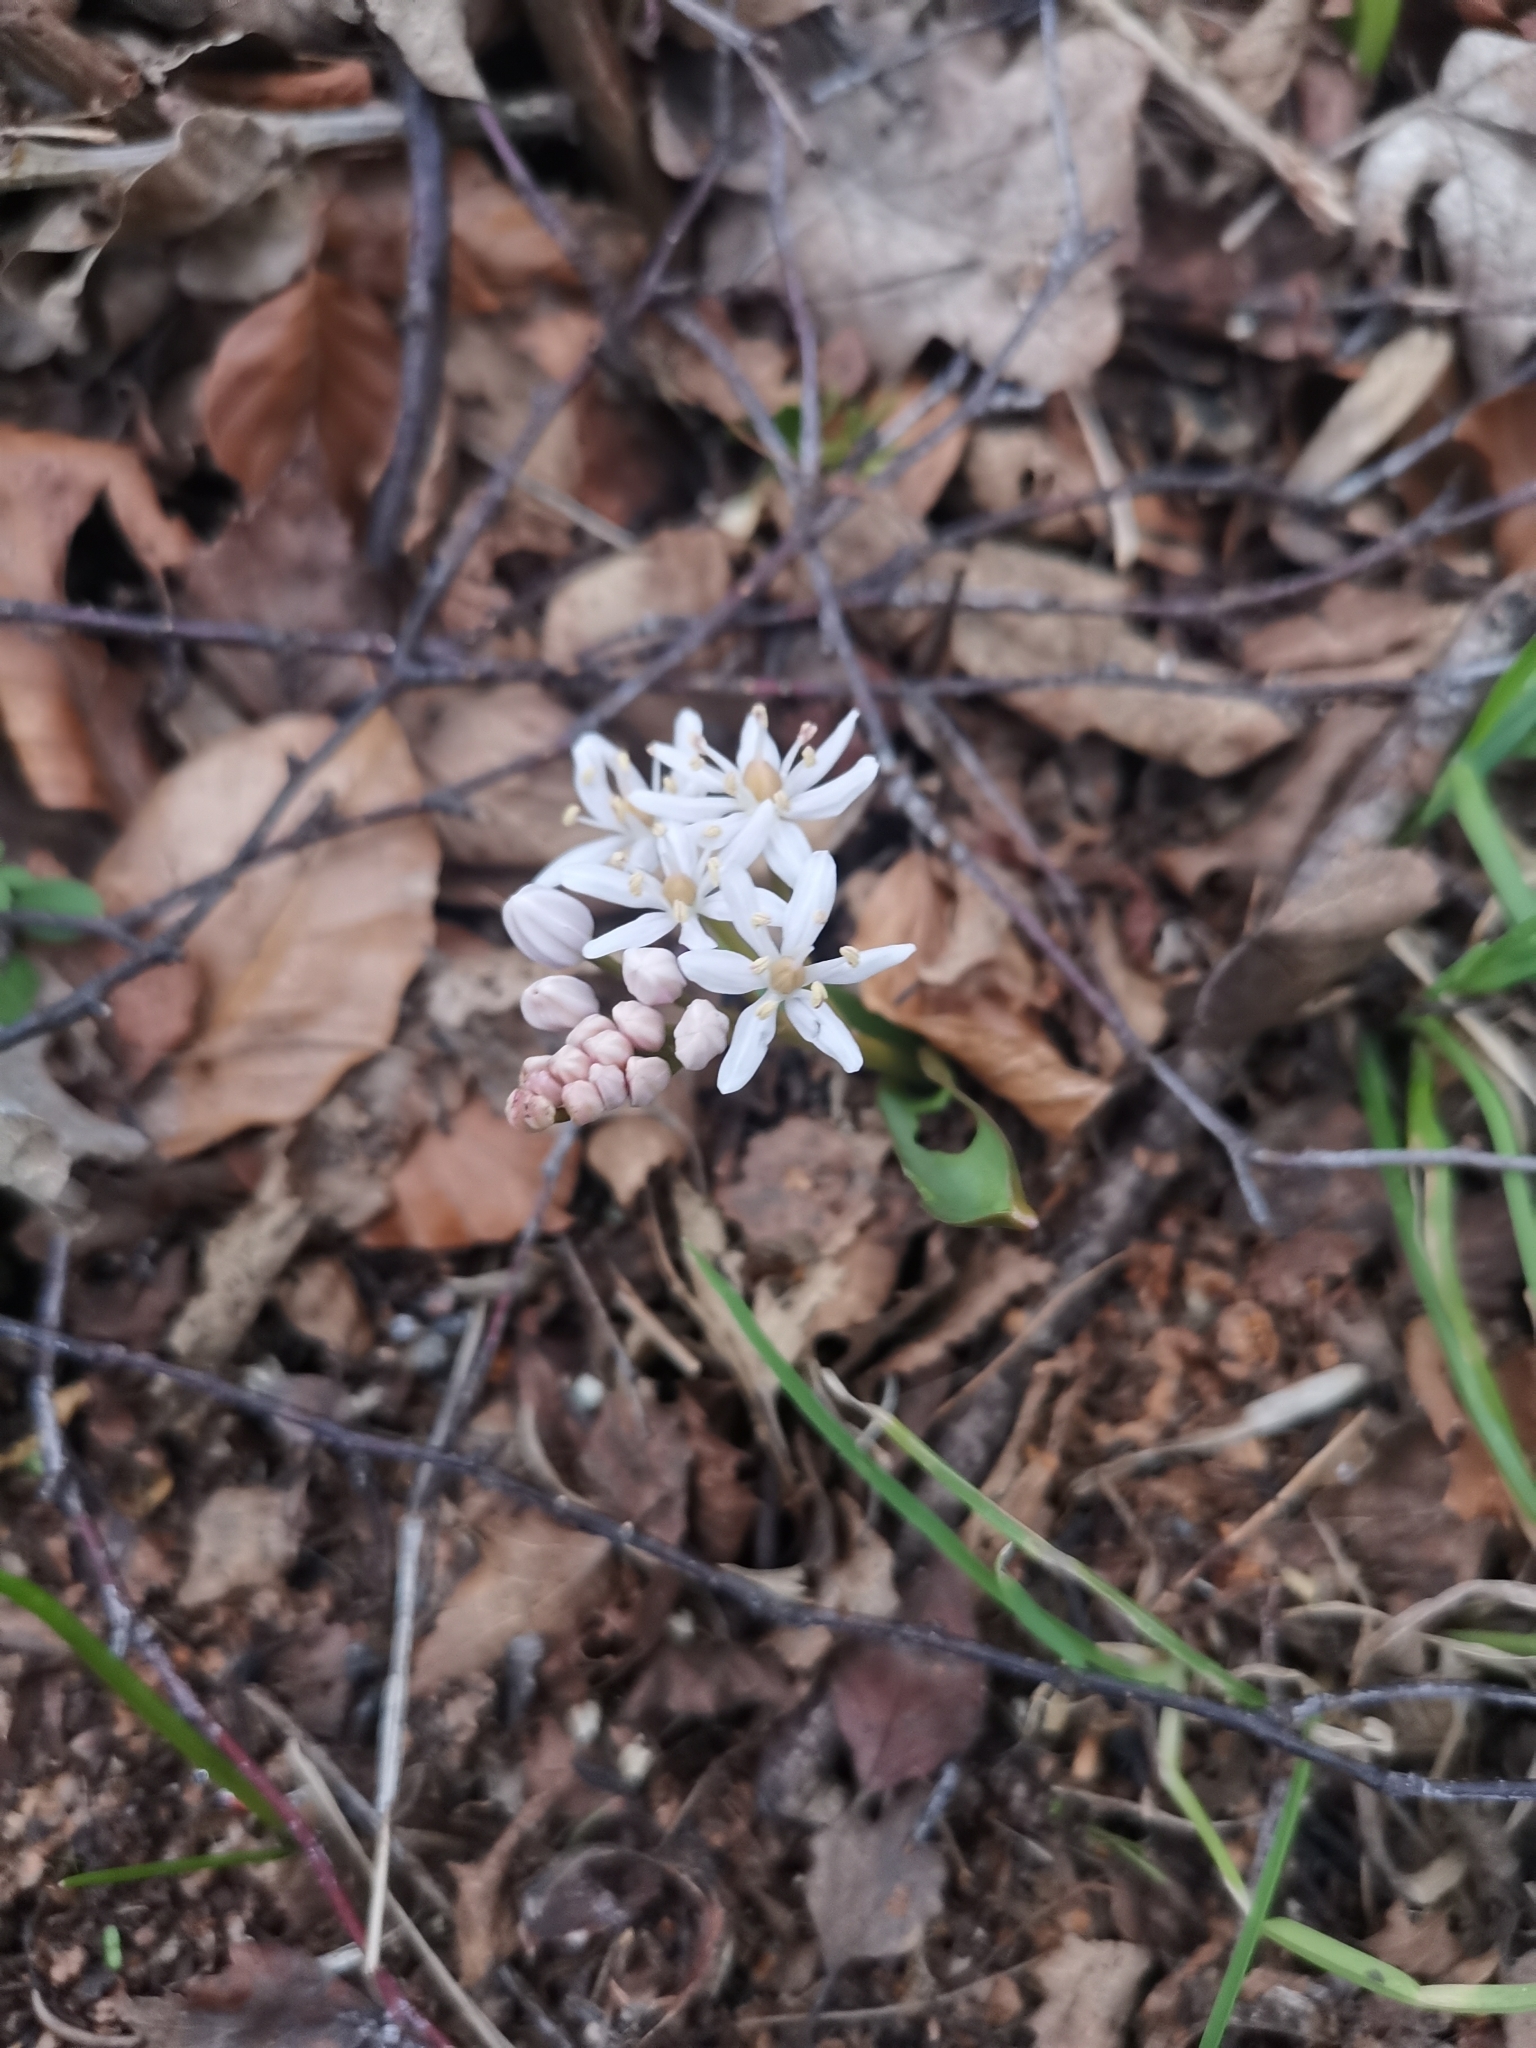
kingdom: Plantae
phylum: Tracheophyta
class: Liliopsida
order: Asparagales
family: Asparagaceae
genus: Scilla
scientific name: Scilla bifolia
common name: Alpine squill
